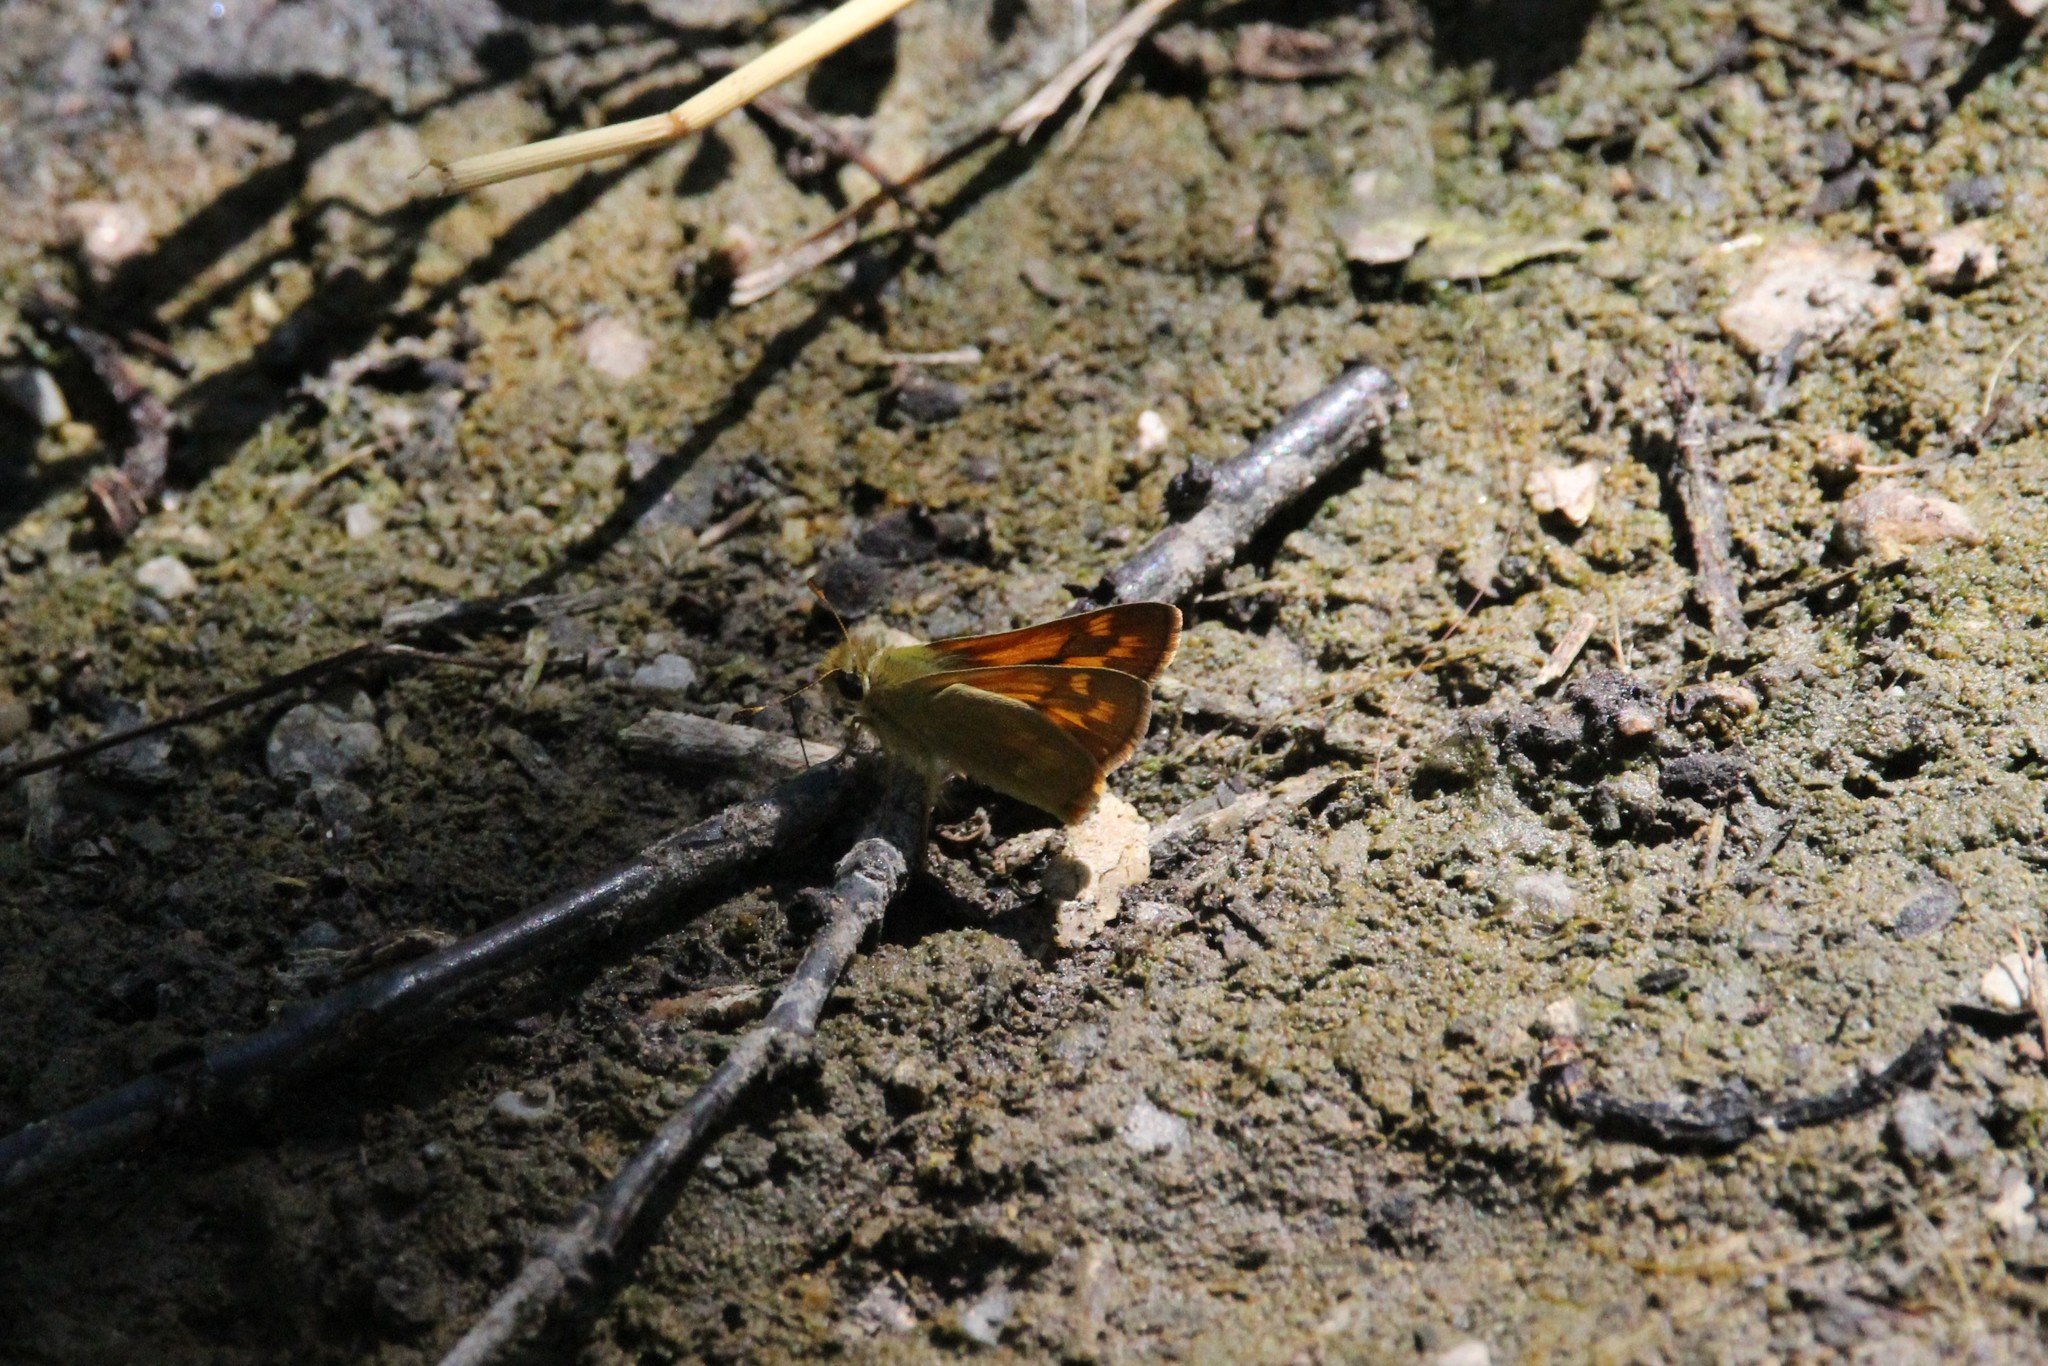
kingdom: Animalia
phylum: Arthropoda
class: Insecta
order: Lepidoptera
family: Hesperiidae
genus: Ochlodes
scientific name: Ochlodes sylvanoides
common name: Woodland skipper
